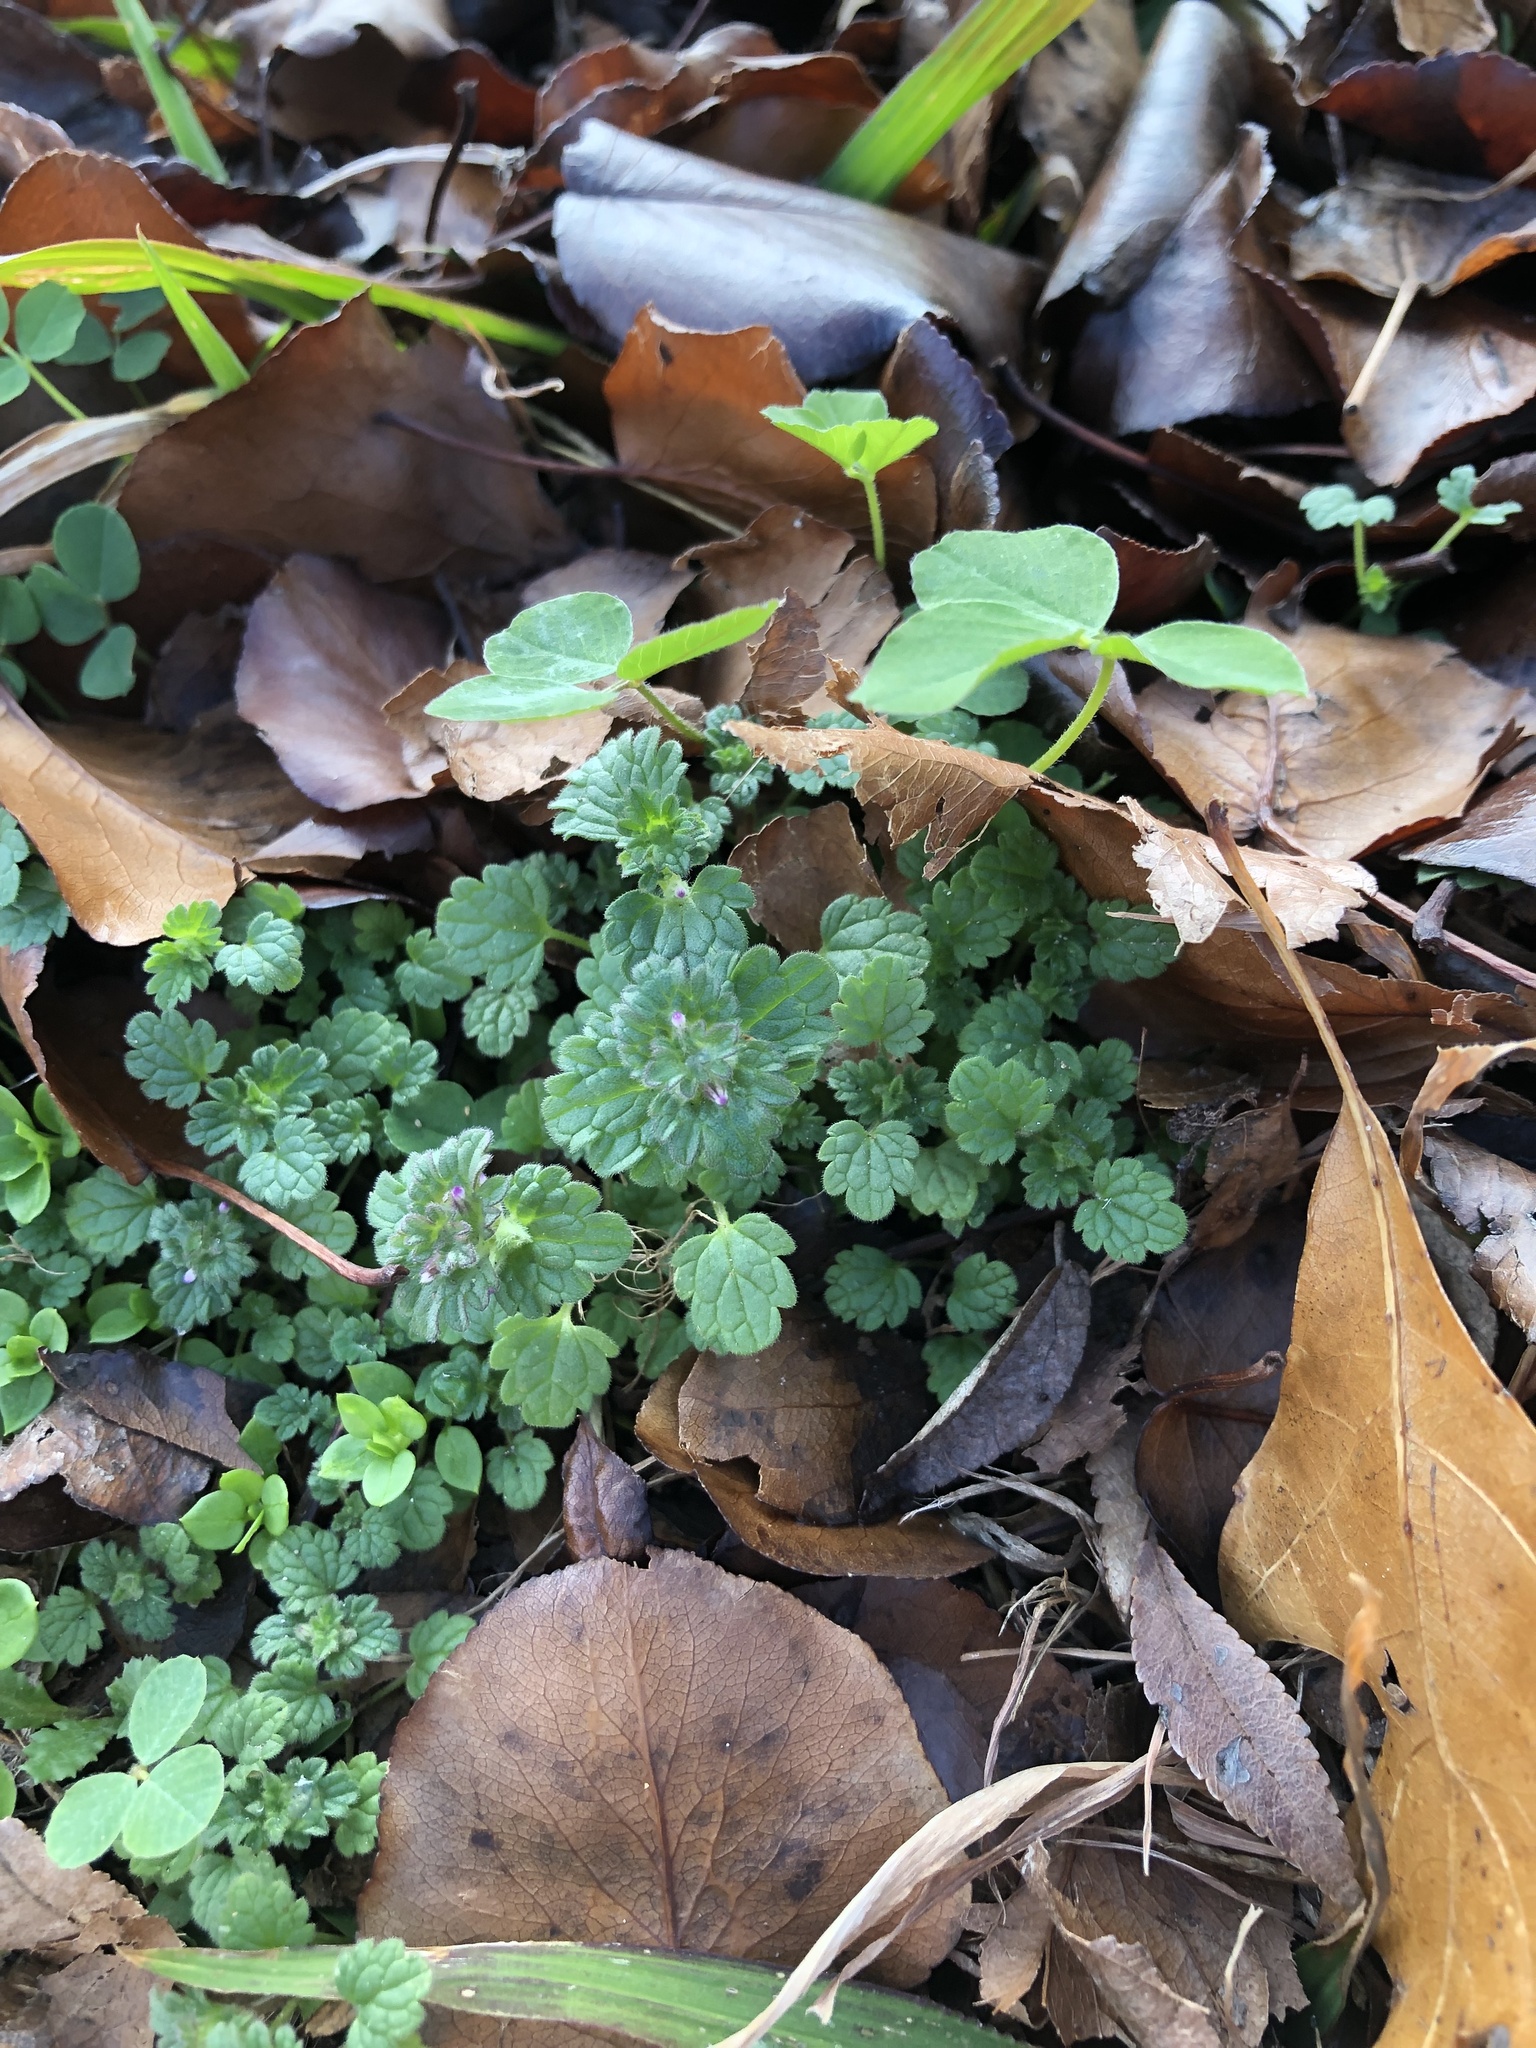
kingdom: Plantae
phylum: Tracheophyta
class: Magnoliopsida
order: Lamiales
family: Lamiaceae
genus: Lamium
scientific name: Lamium amplexicaule
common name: Henbit dead-nettle
